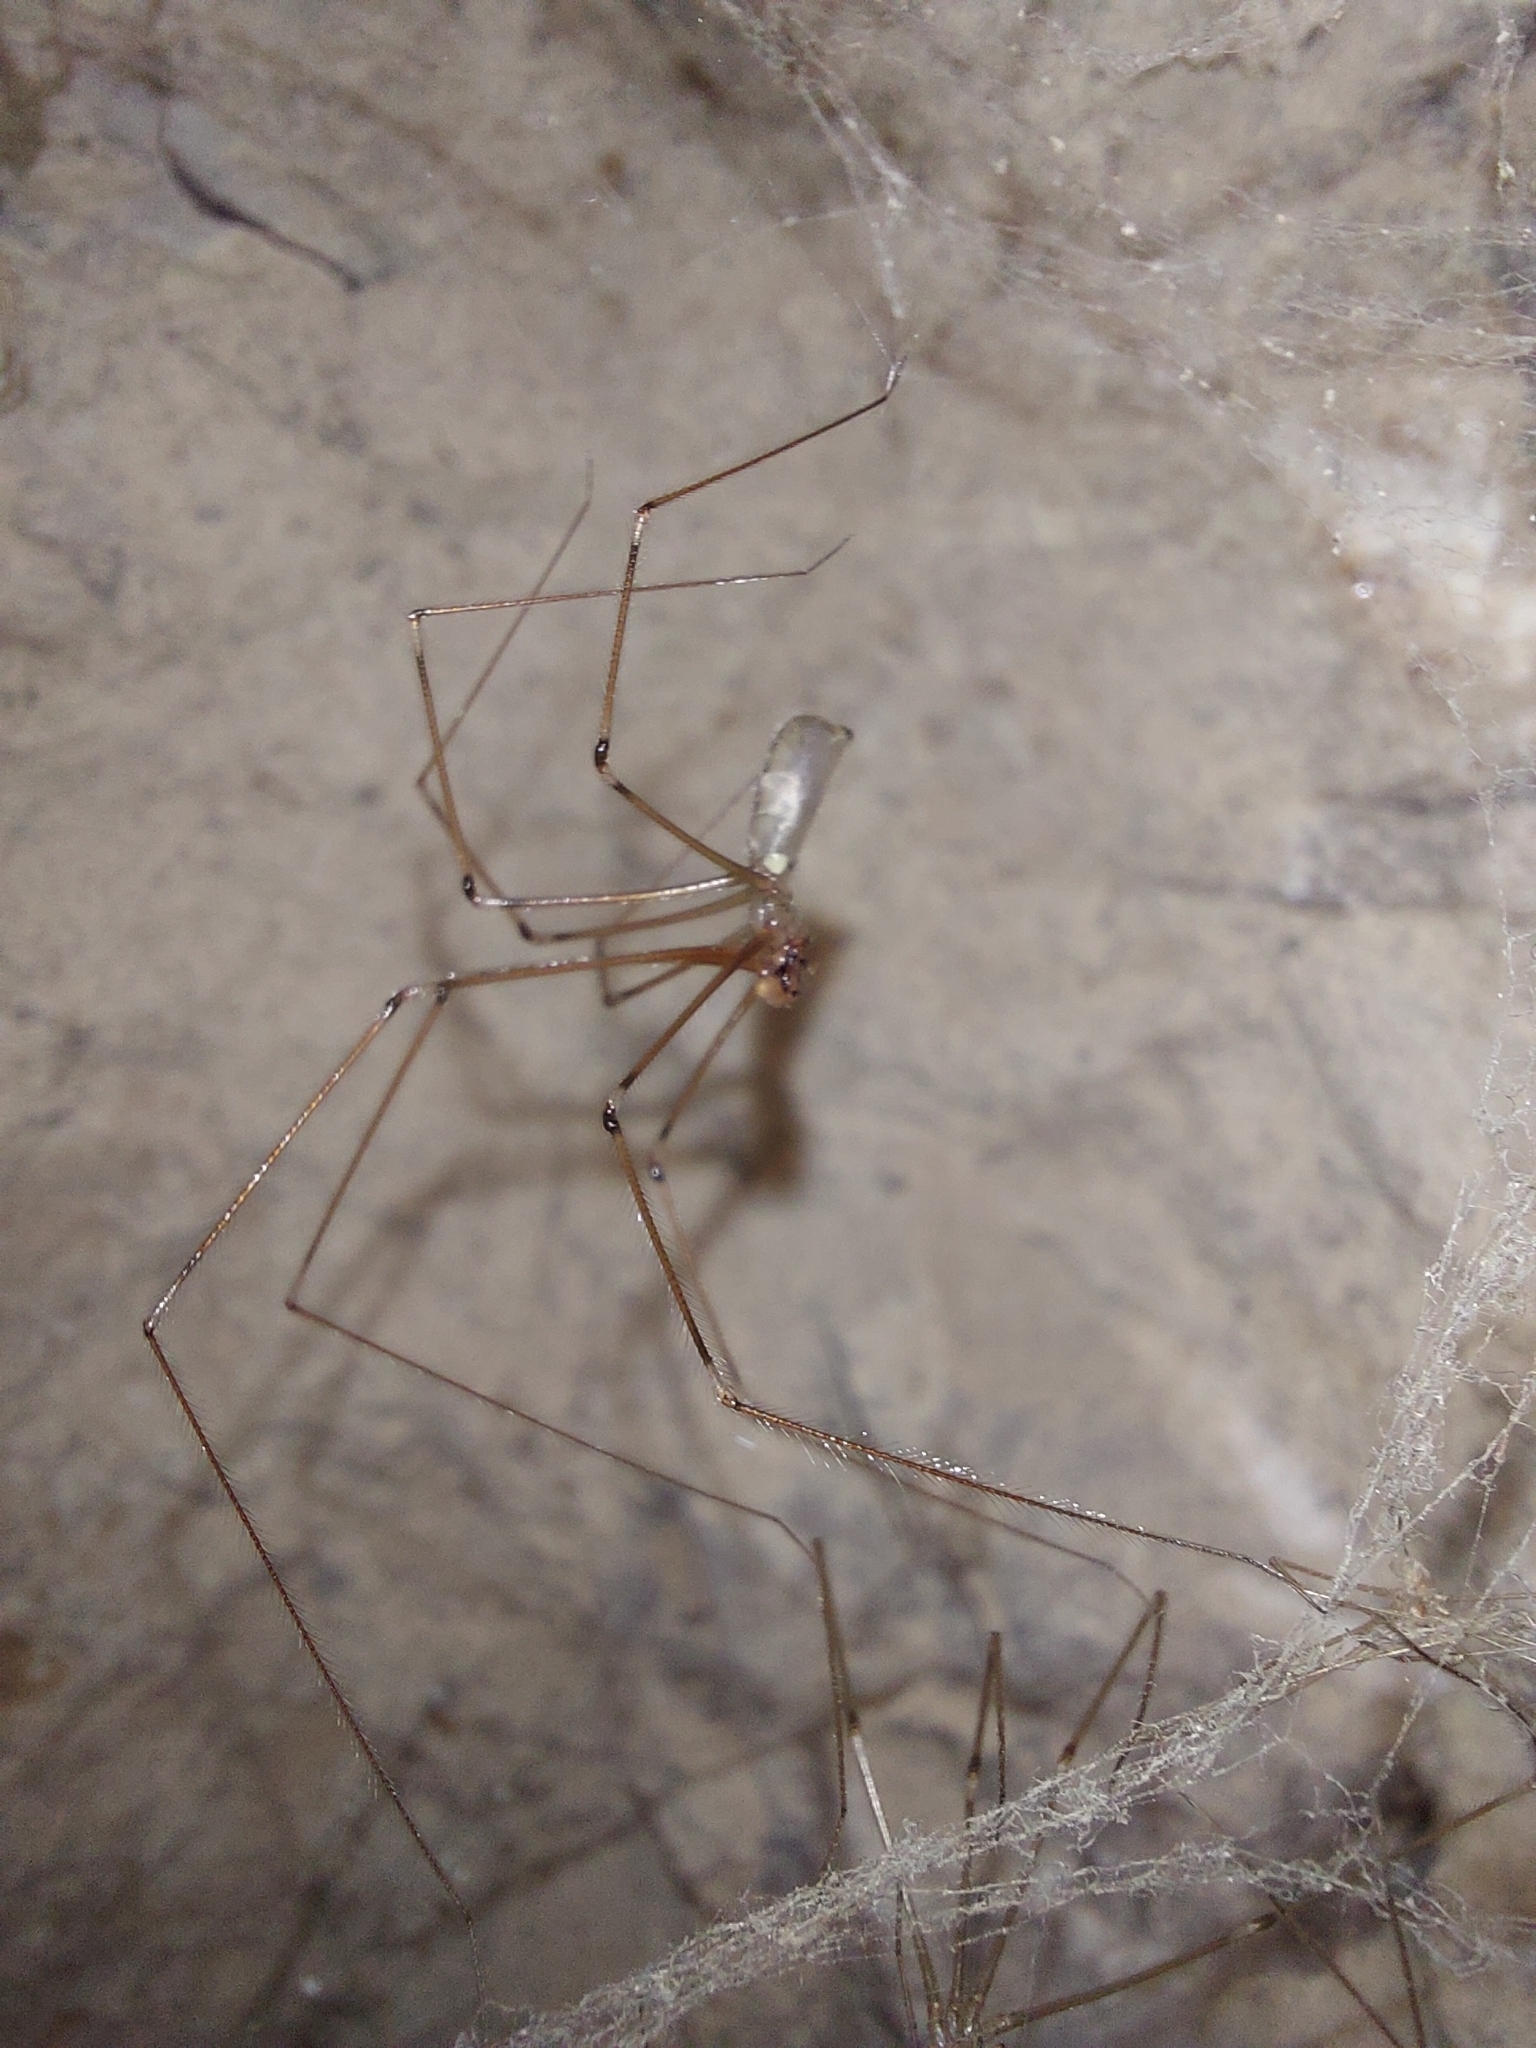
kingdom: Animalia
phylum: Arthropoda
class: Arachnida
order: Araneae
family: Pholcidae
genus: Pholcus
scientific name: Pholcus phalangioides
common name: Longbodied cellar spider
